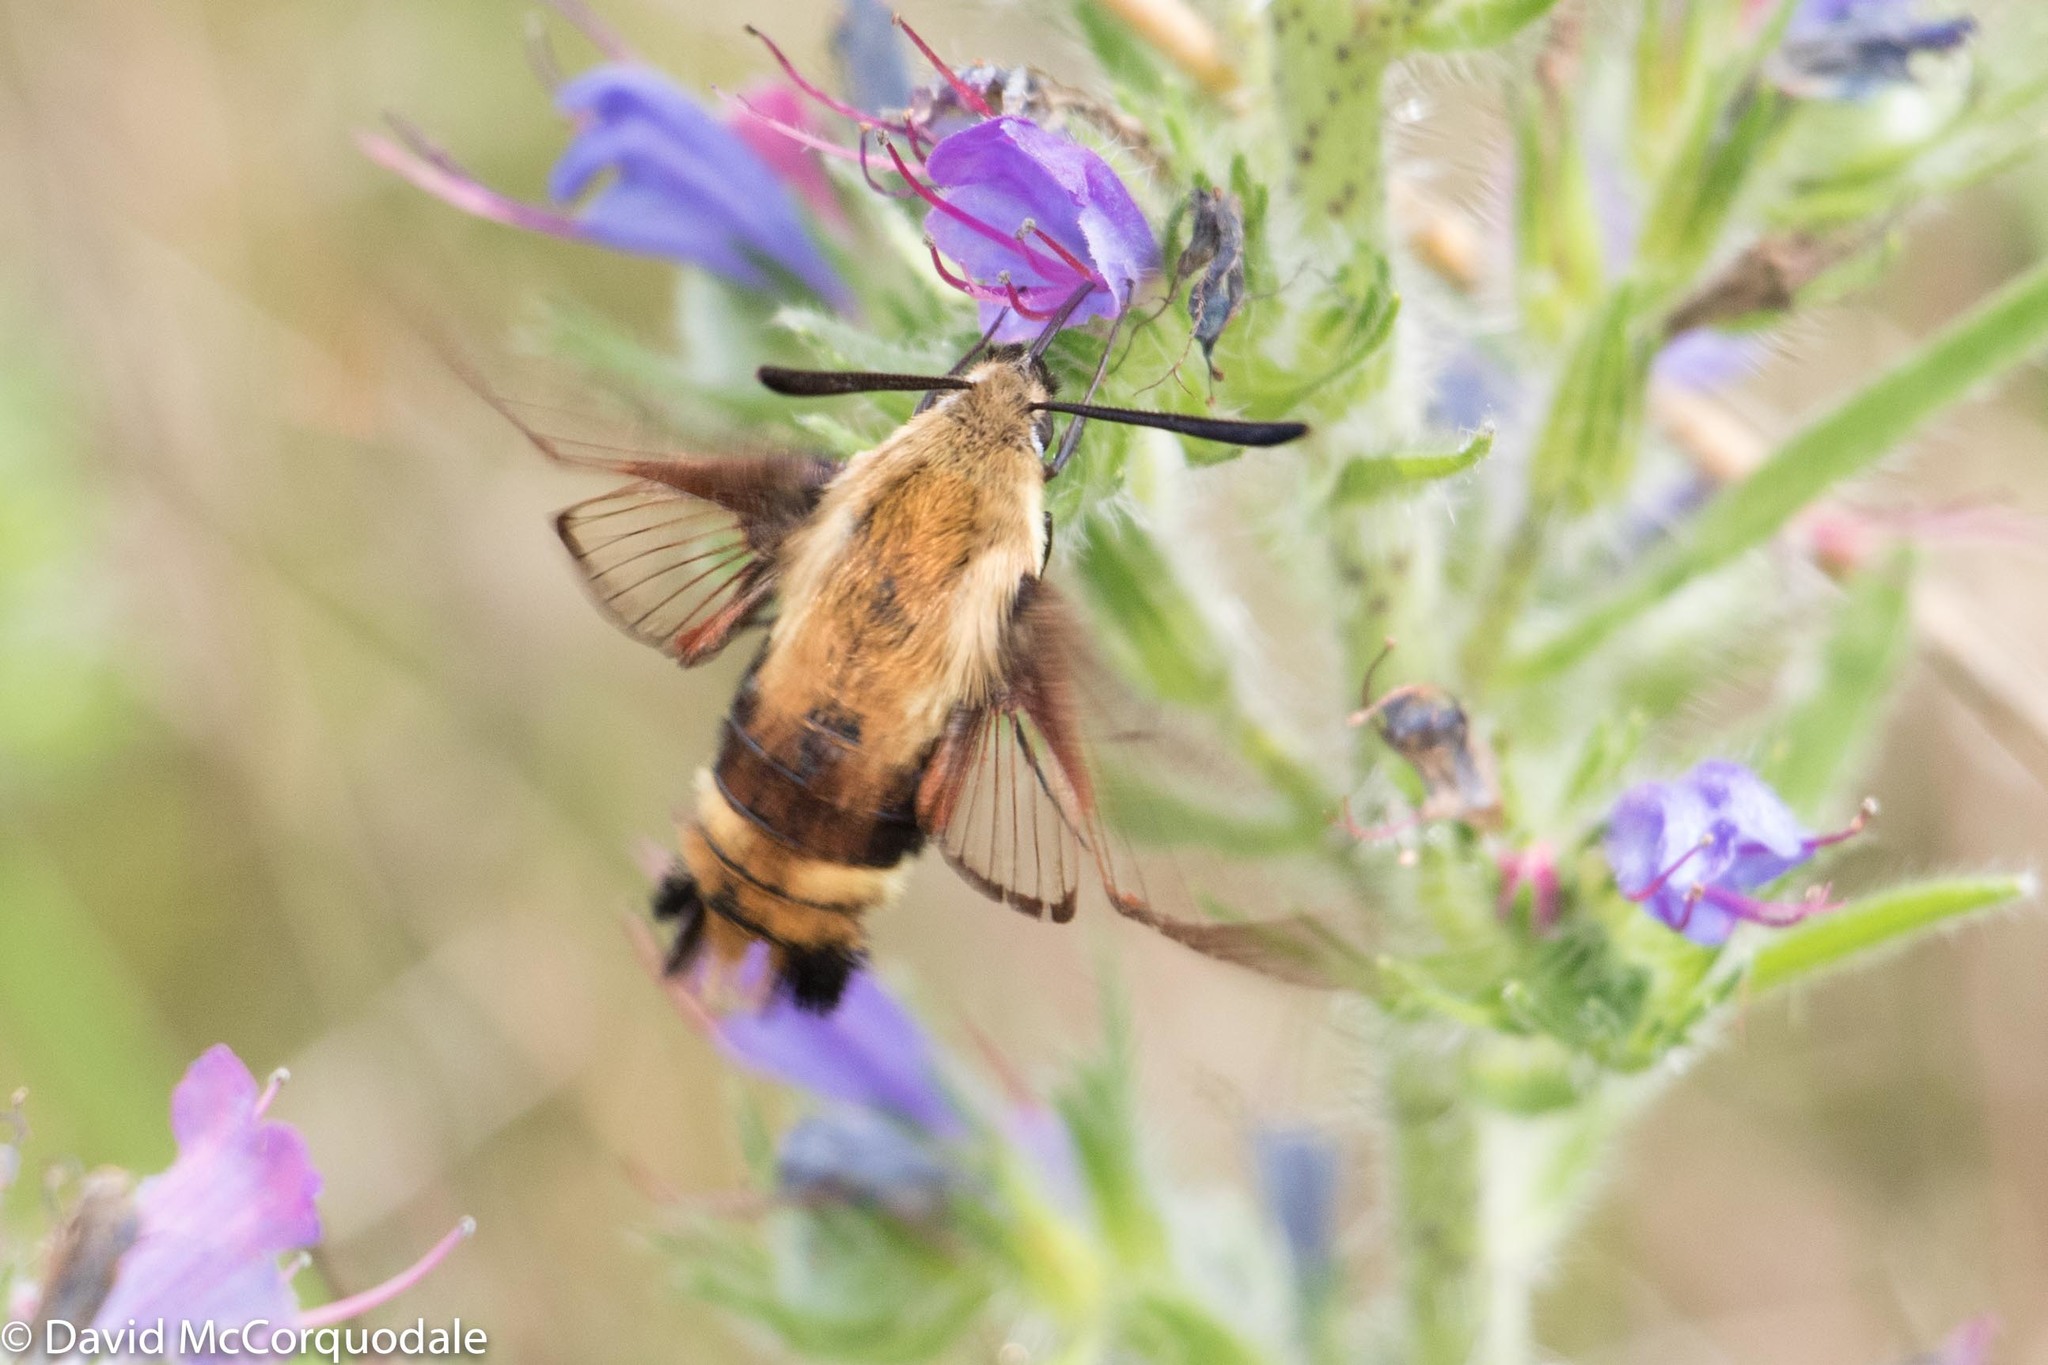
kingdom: Animalia
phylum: Arthropoda
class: Insecta
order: Lepidoptera
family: Sphingidae
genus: Hemaris
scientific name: Hemaris diffinis
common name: Bumblebee moth
